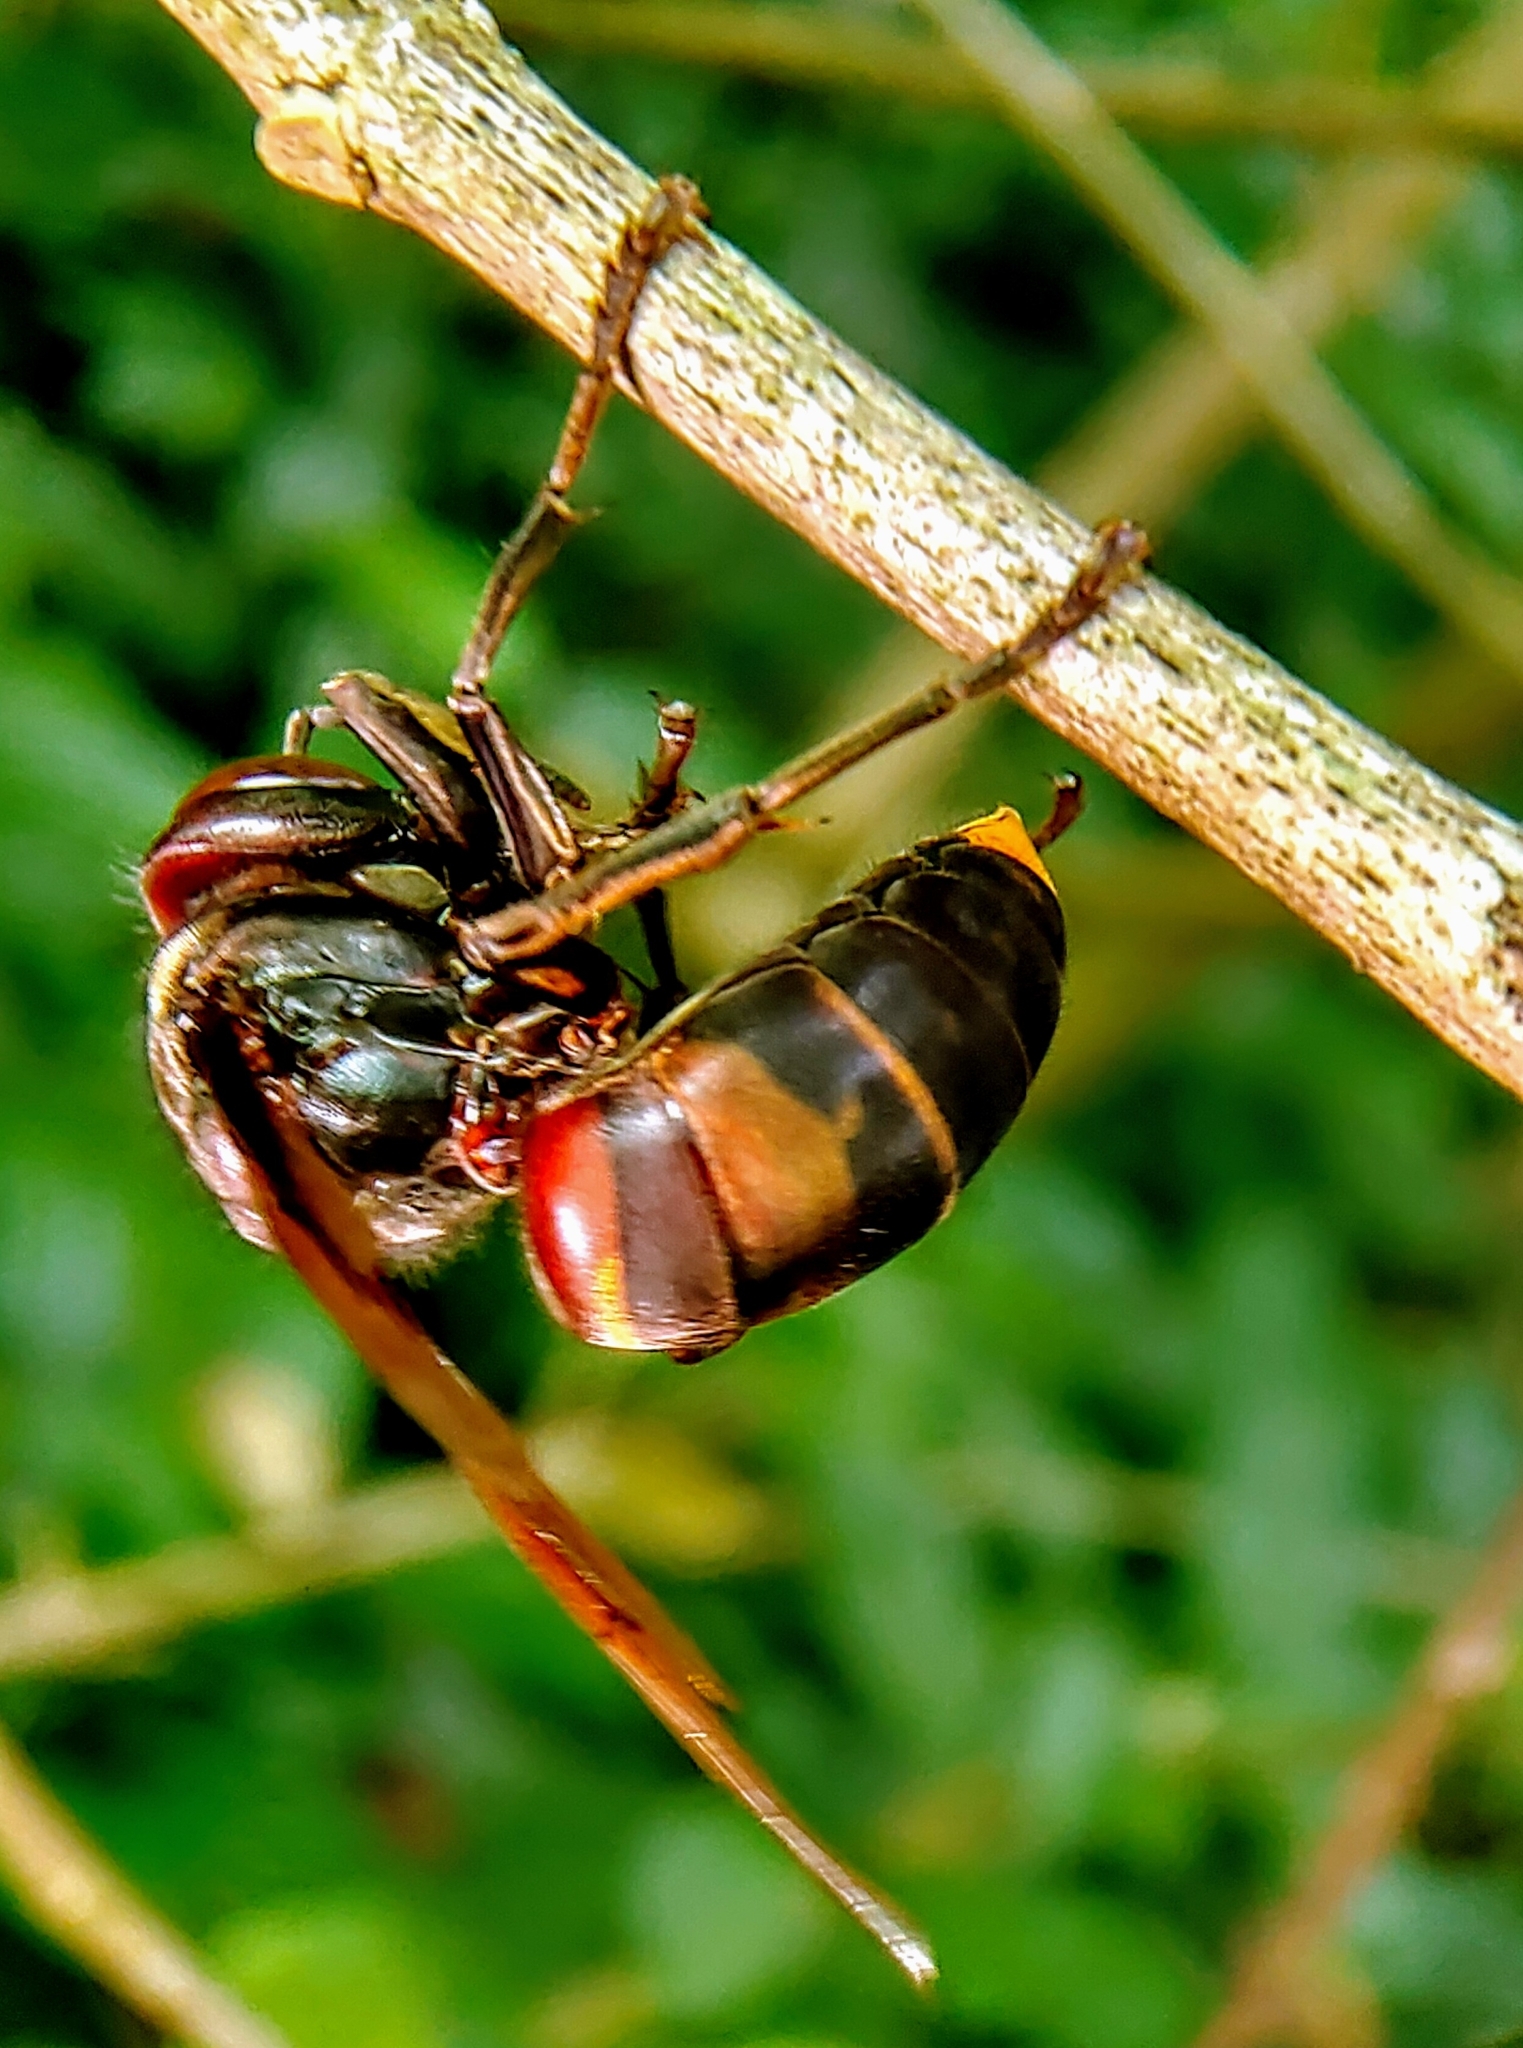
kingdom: Animalia
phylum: Arthropoda
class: Insecta
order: Hymenoptera
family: Vespidae
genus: Vespa
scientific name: Vespa analis
